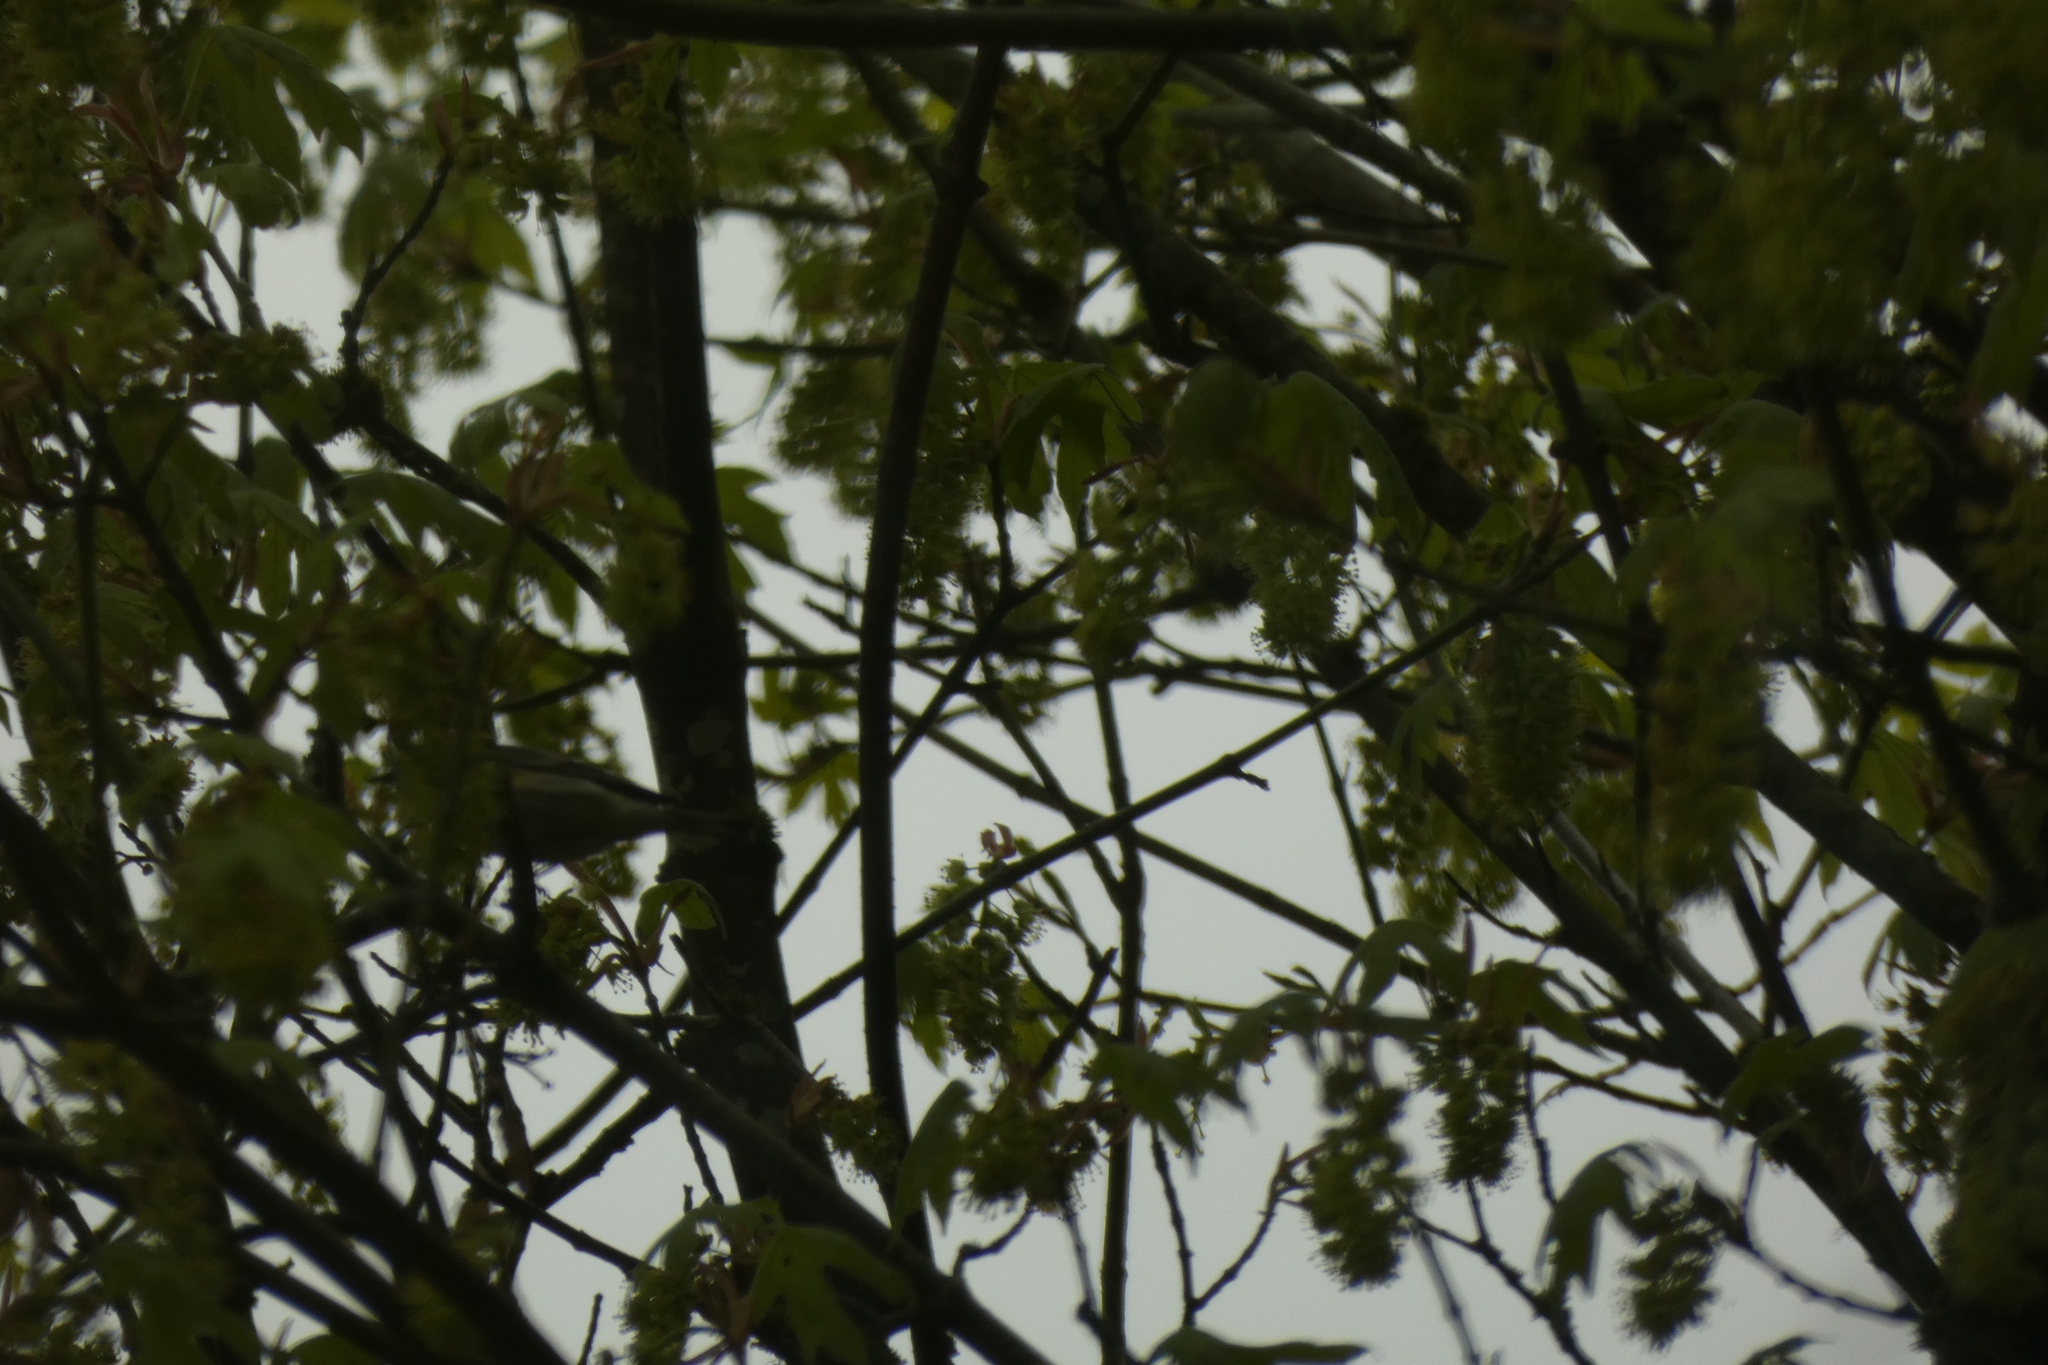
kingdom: Animalia
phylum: Chordata
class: Aves
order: Passeriformes
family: Parulidae
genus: Setophaga
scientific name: Setophaga coronata
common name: Myrtle warbler
